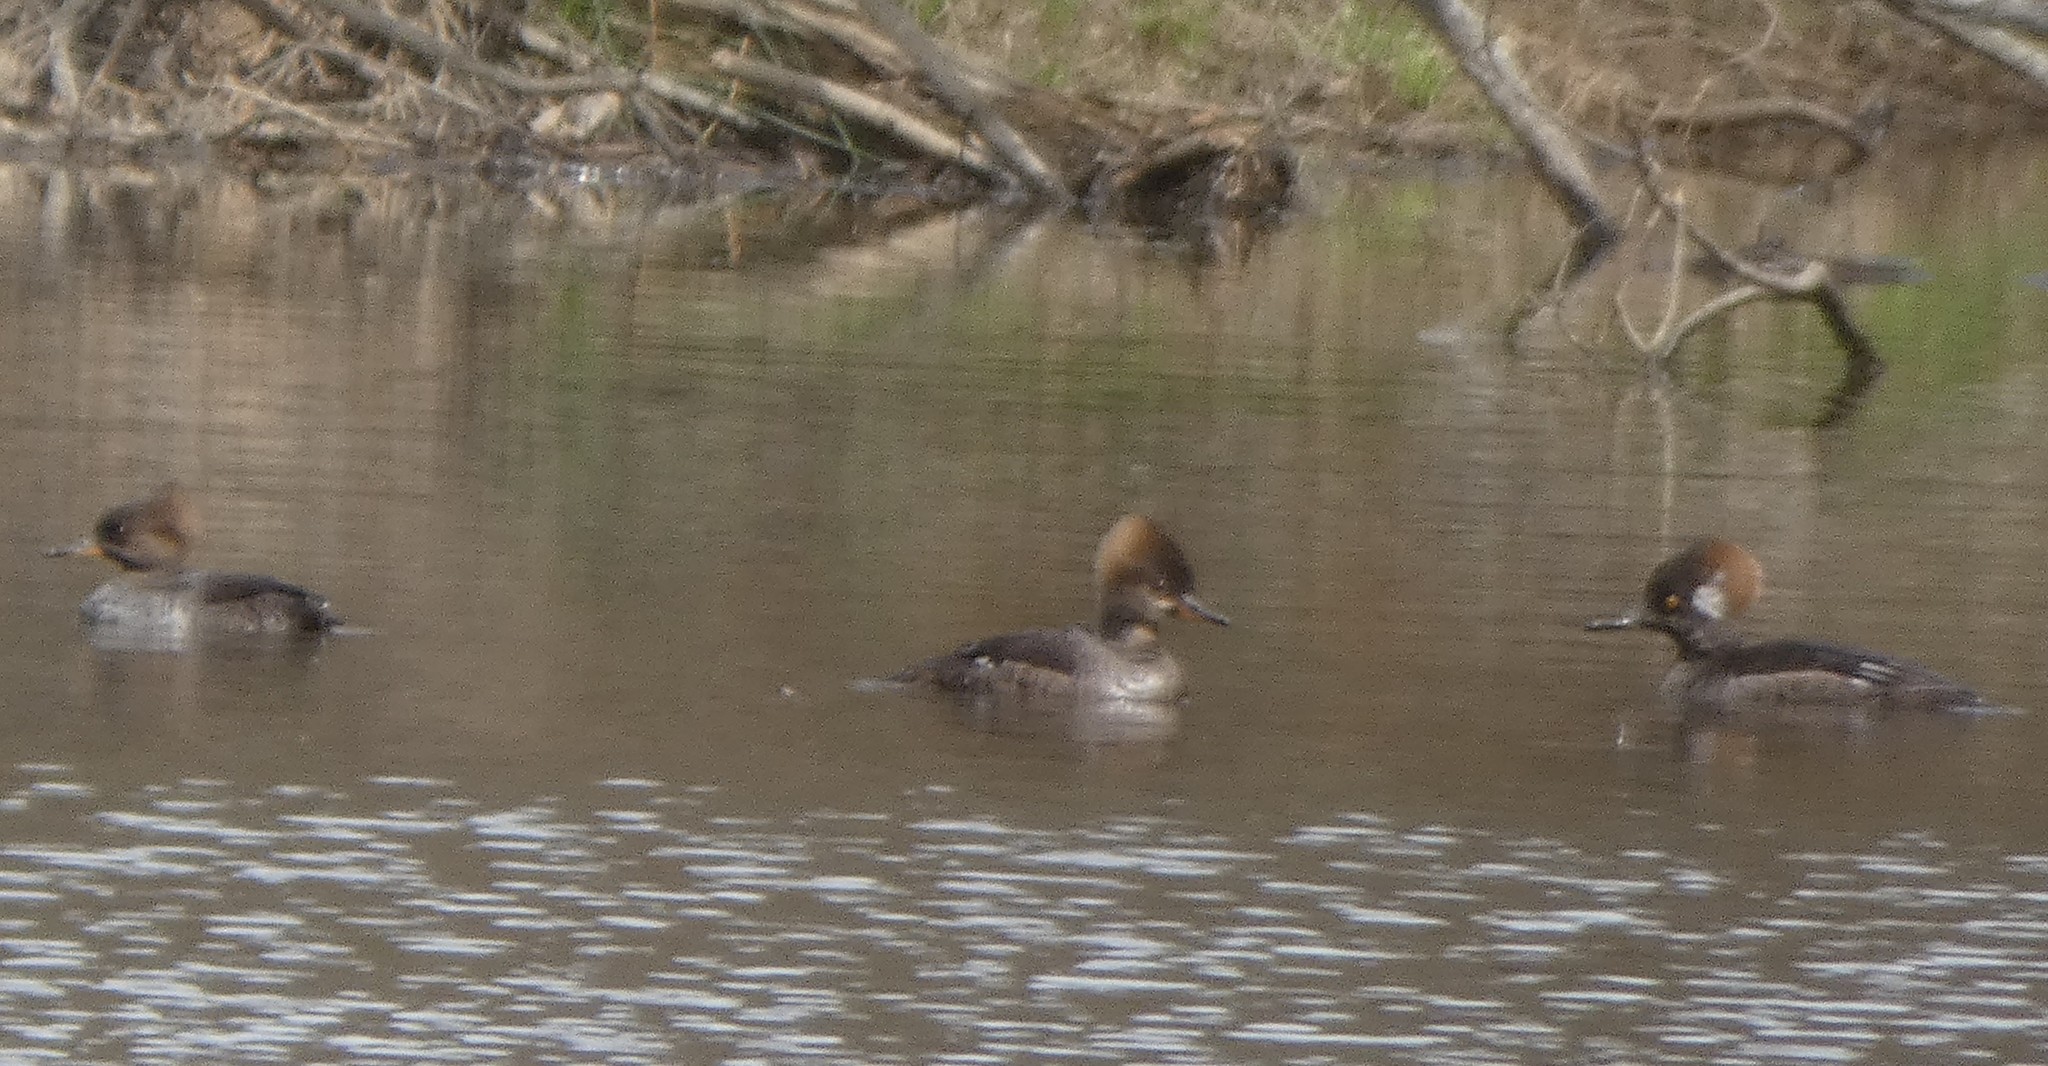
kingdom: Animalia
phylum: Chordata
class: Aves
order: Anseriformes
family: Anatidae
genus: Lophodytes
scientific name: Lophodytes cucullatus
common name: Hooded merganser
